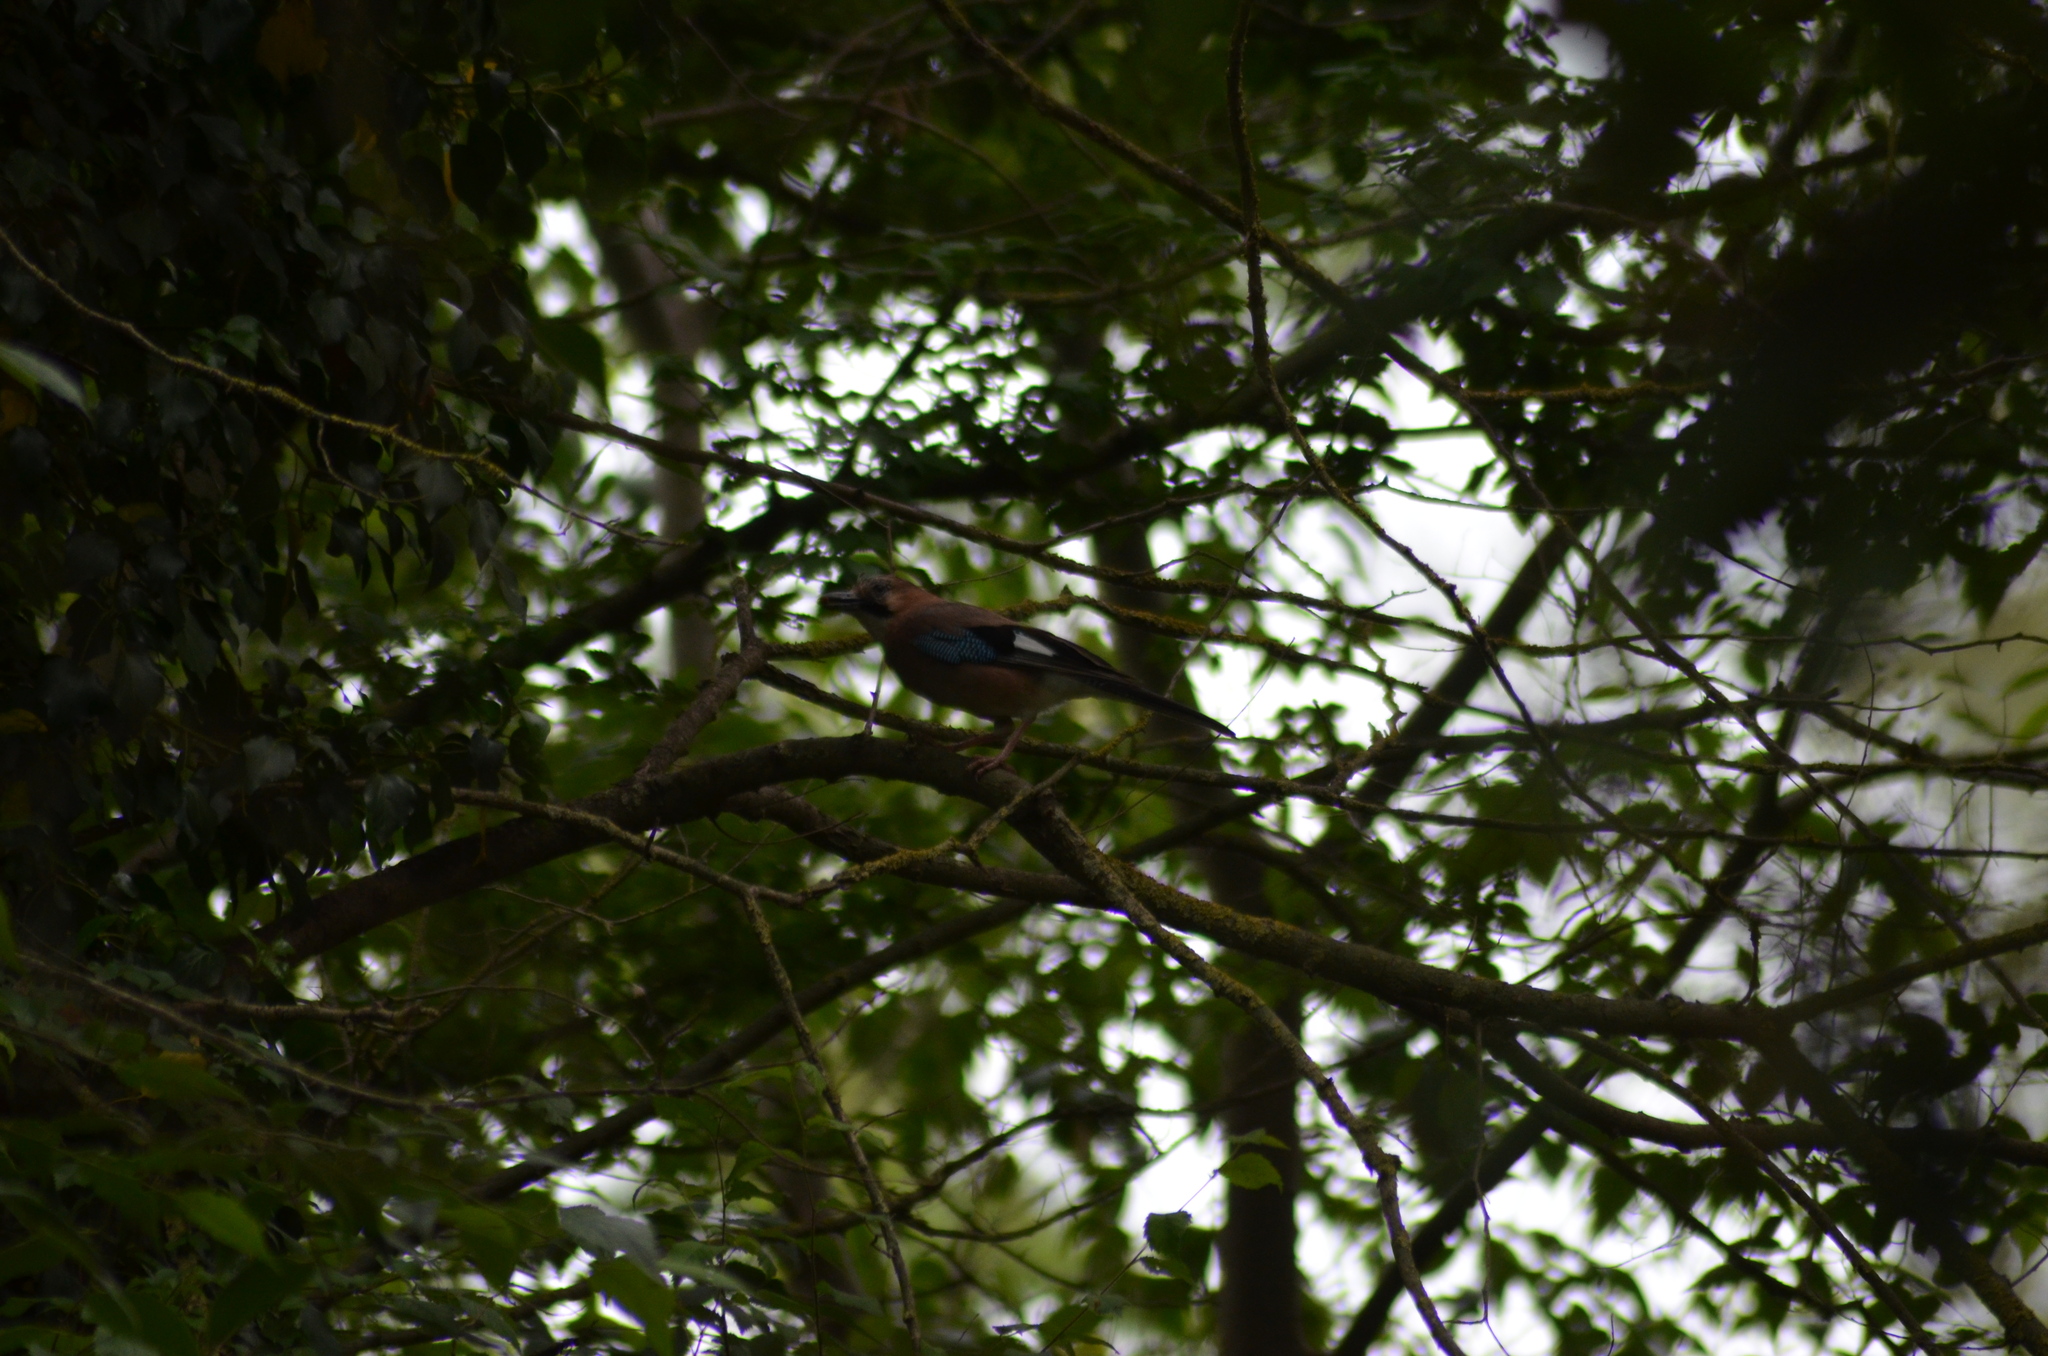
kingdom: Animalia
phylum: Chordata
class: Aves
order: Passeriformes
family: Corvidae
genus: Garrulus
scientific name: Garrulus glandarius
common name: Eurasian jay
